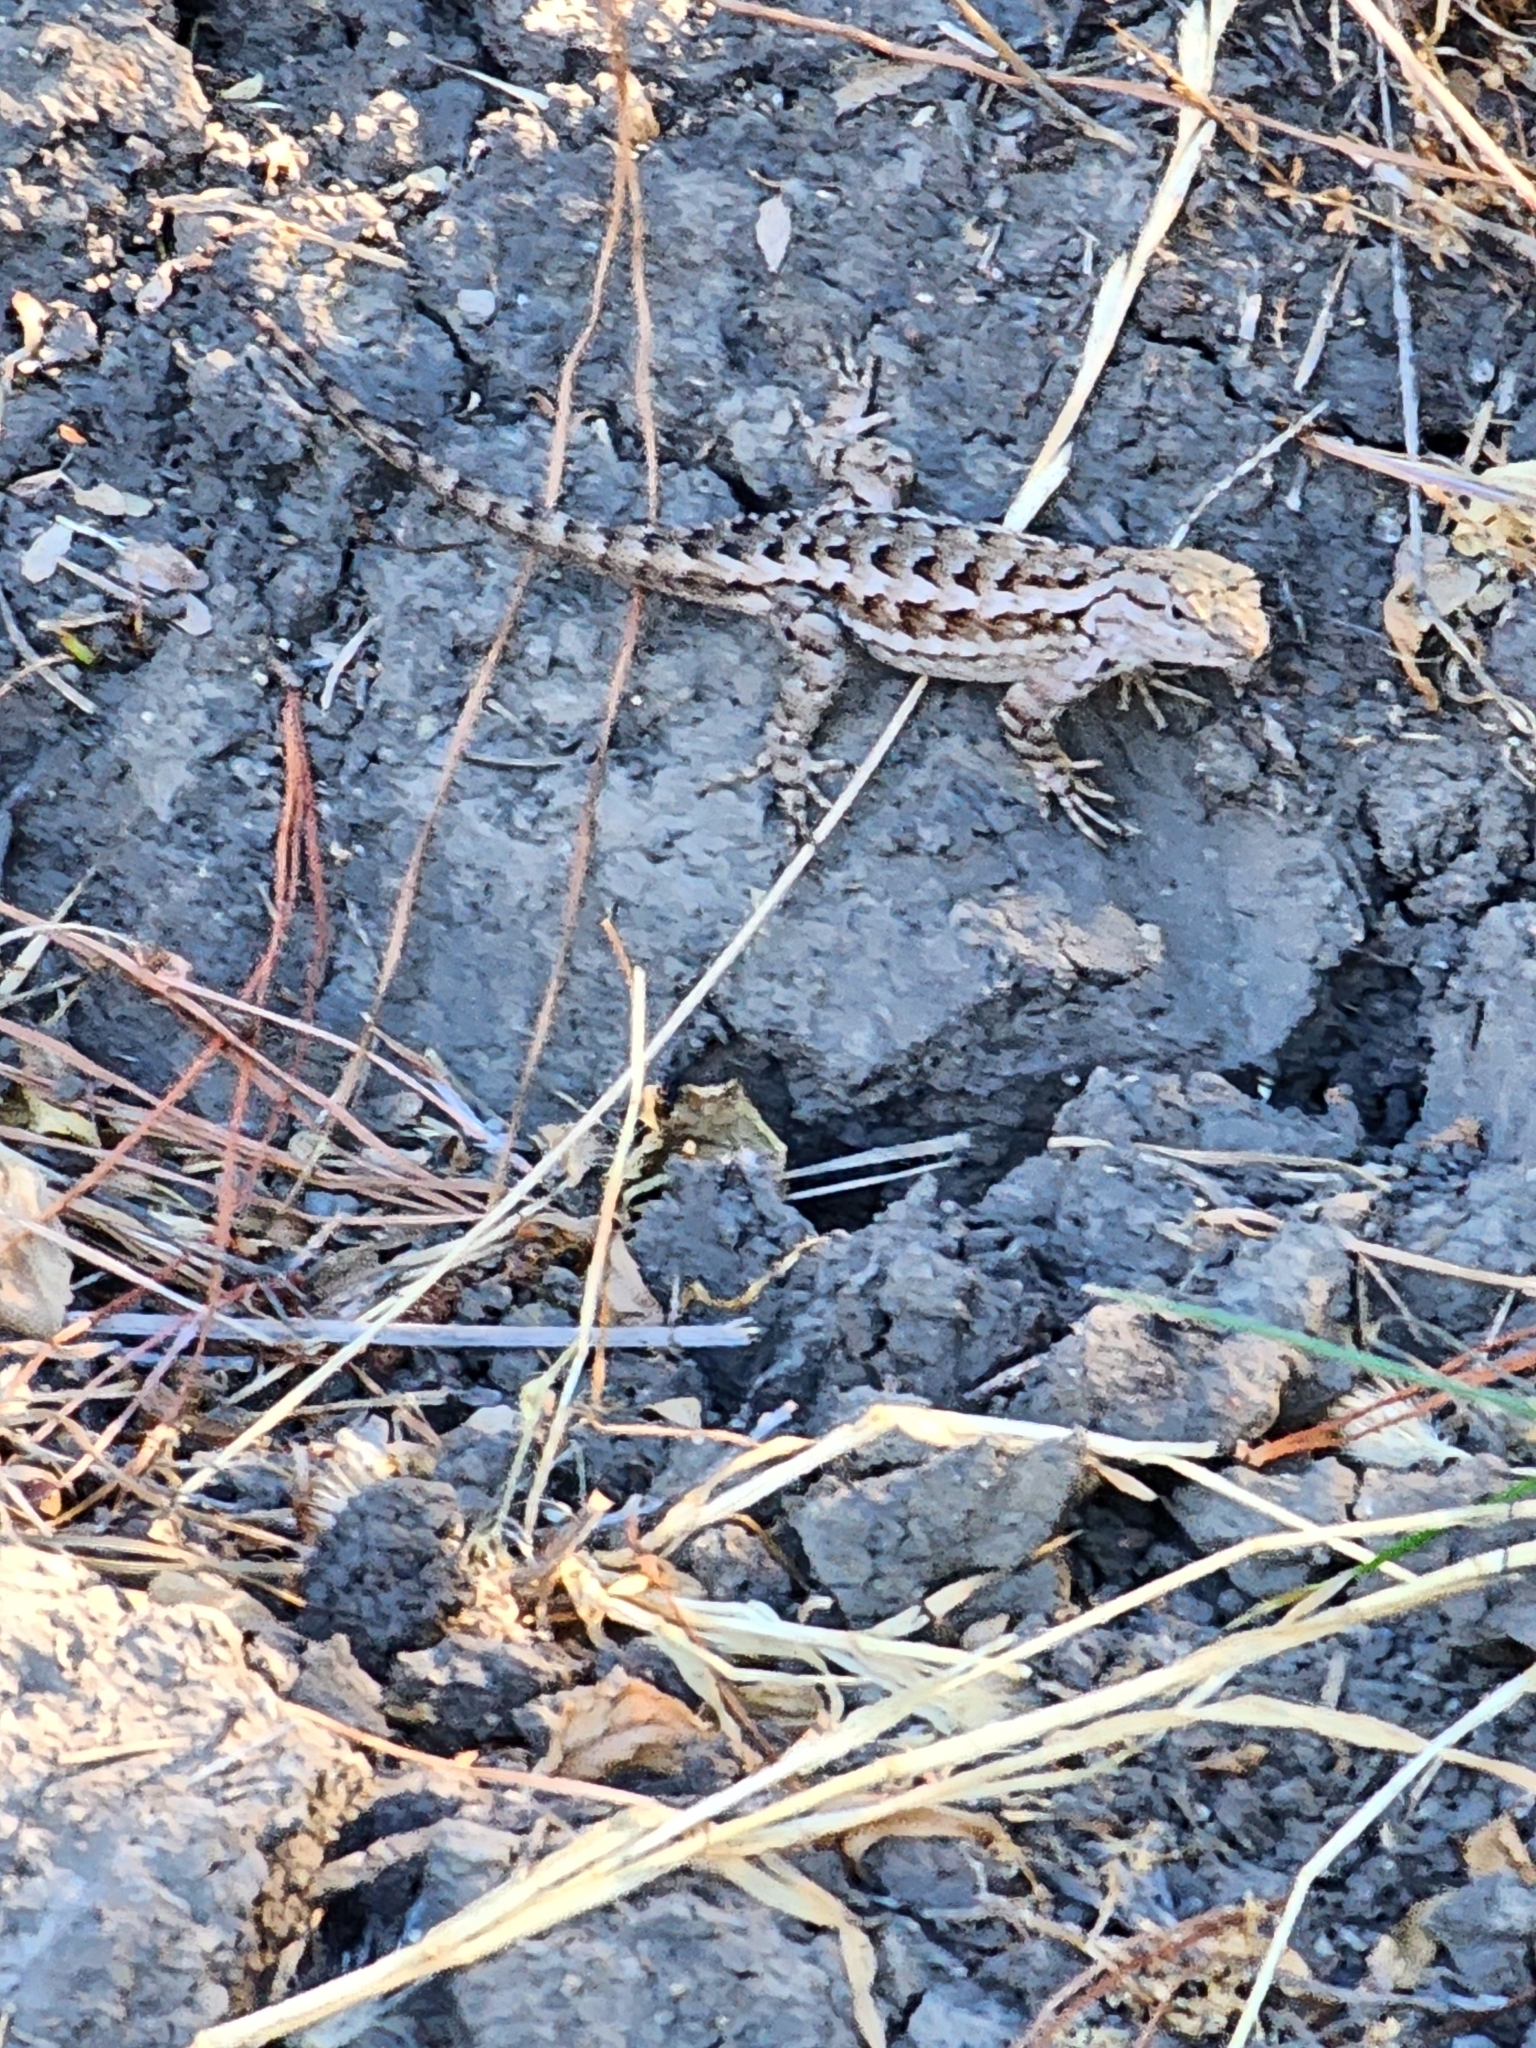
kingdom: Animalia
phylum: Chordata
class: Squamata
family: Phrynosomatidae
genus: Sceloporus
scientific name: Sceloporus occidentalis
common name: Western fence lizard
